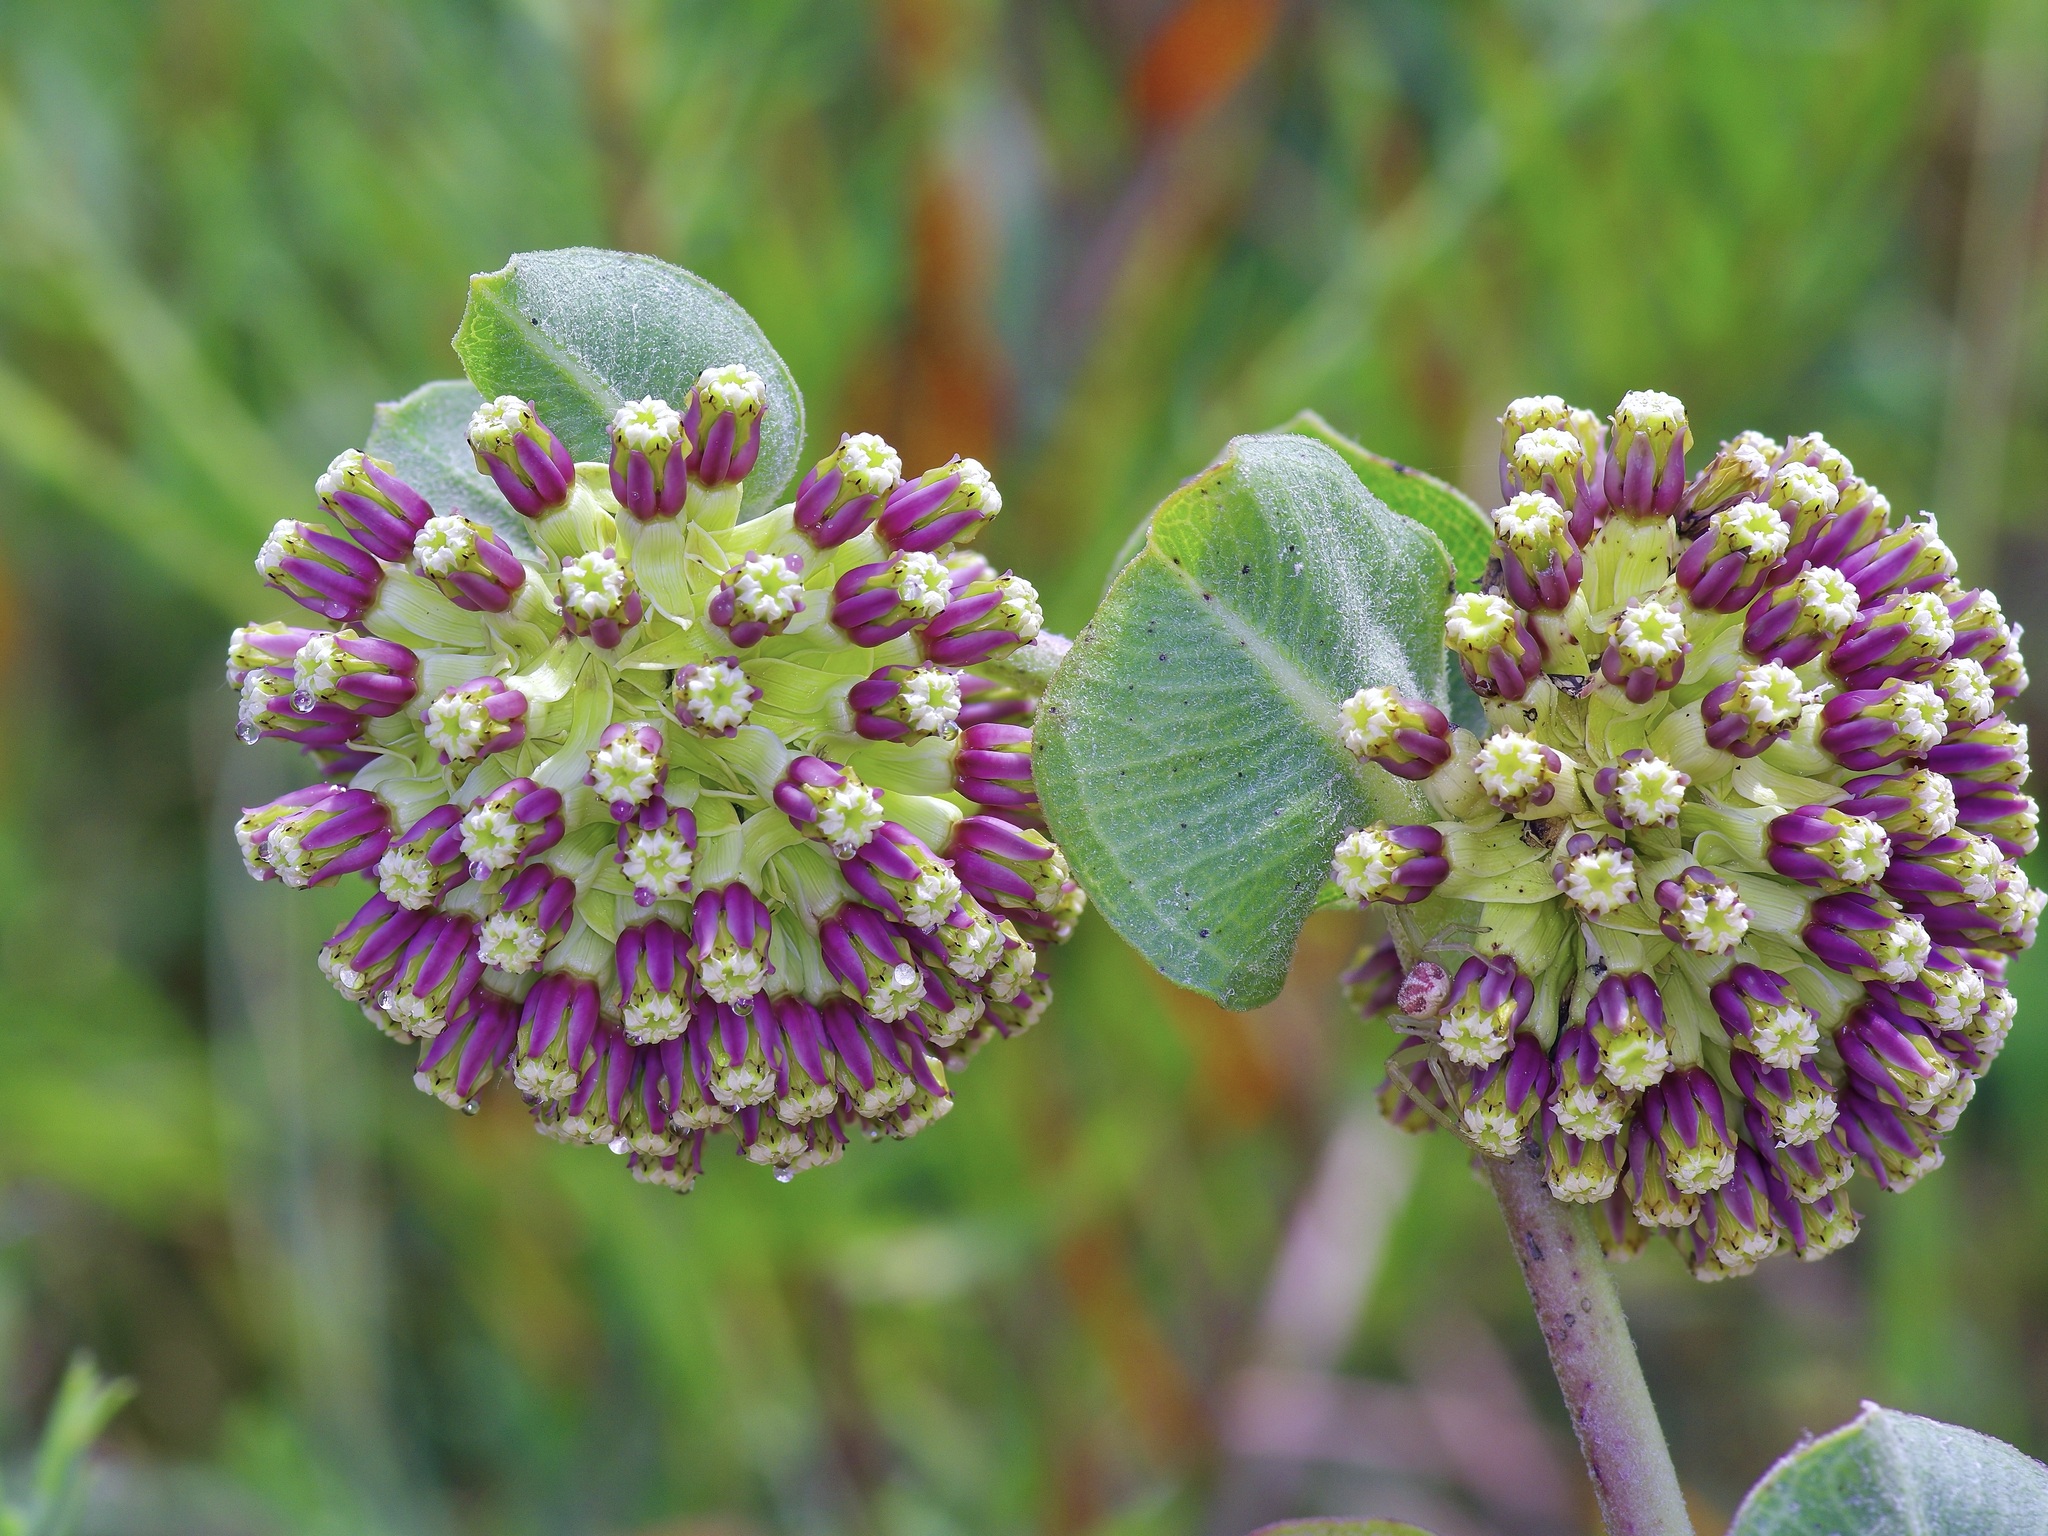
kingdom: Plantae
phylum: Tracheophyta
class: Magnoliopsida
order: Gentianales
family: Apocynaceae
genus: Asclepias
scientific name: Asclepias viridiflora
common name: Green comet milkweed
